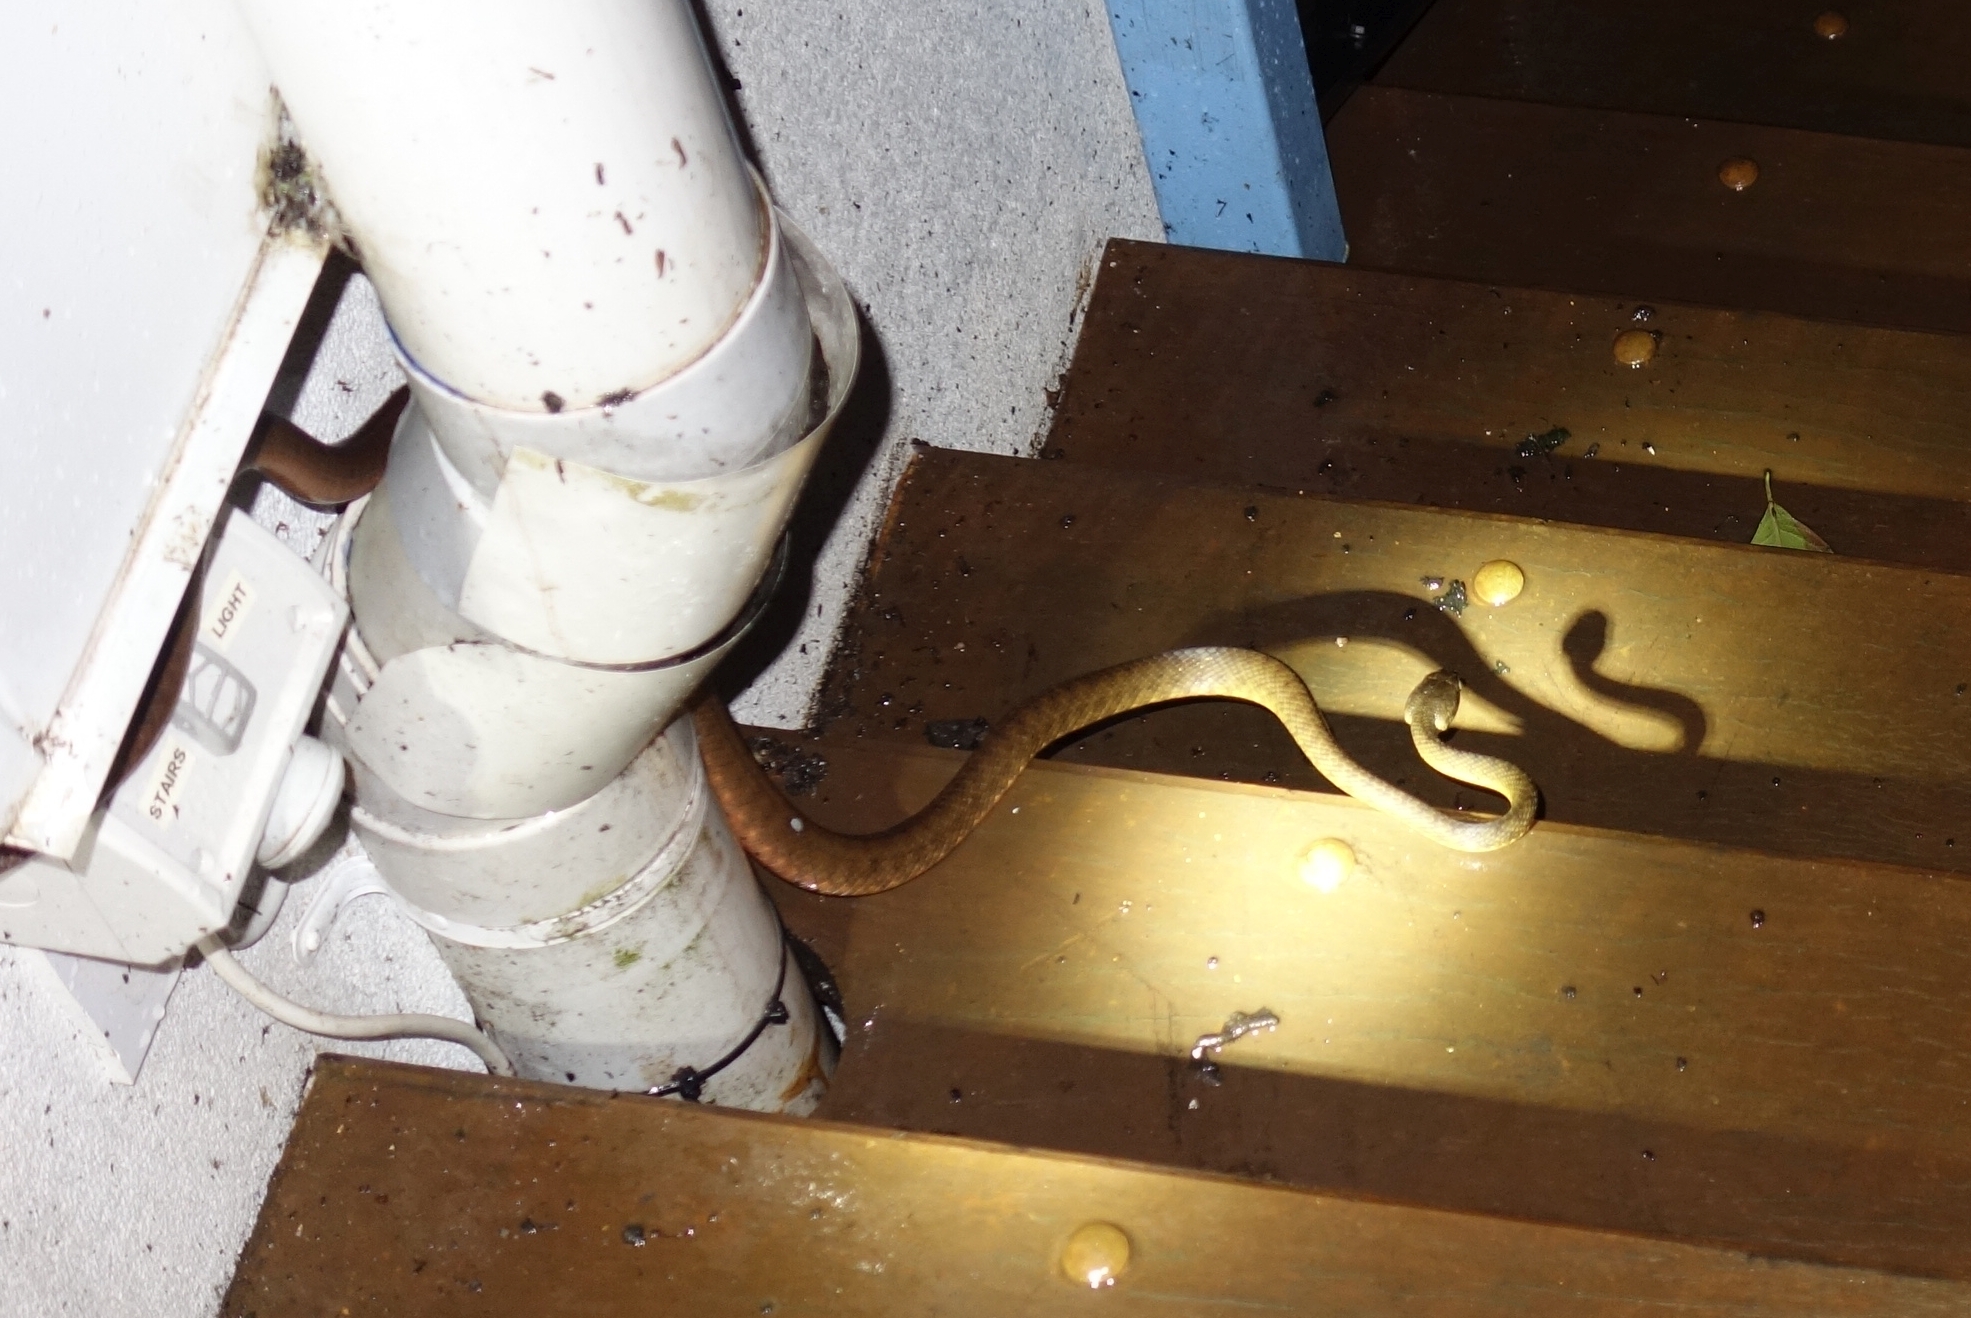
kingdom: Animalia
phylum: Chordata
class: Squamata
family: Colubridae
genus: Boiga
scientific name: Boiga irregularis
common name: Brown tree snake
